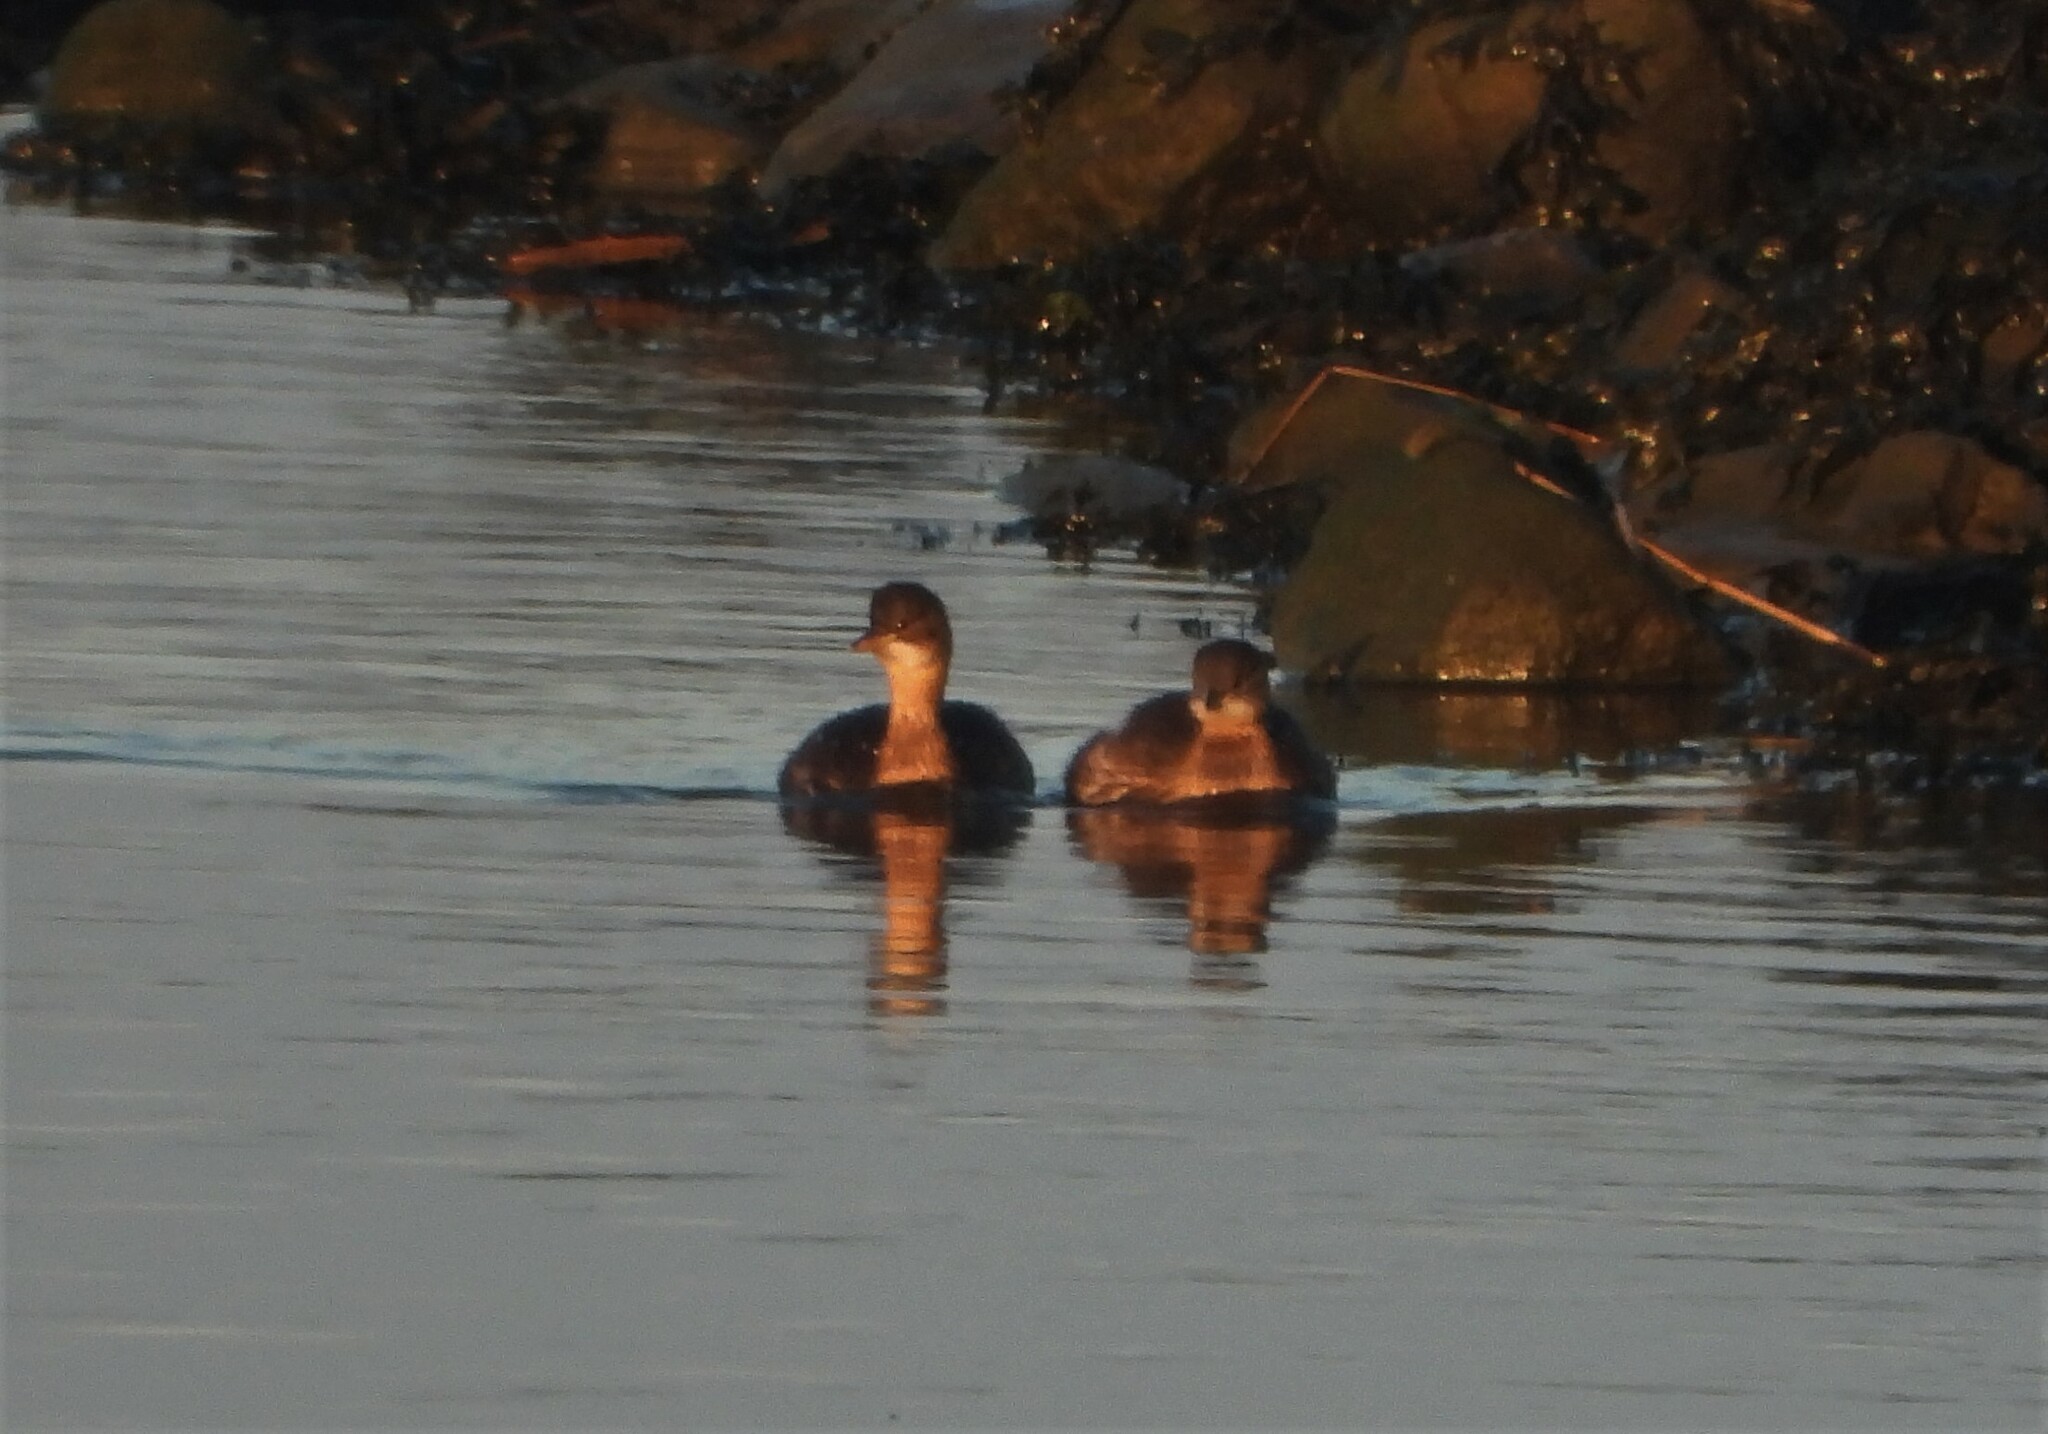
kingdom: Animalia
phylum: Chordata
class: Aves
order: Podicipediformes
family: Podicipedidae
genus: Tachybaptus
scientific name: Tachybaptus ruficollis
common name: Little grebe
